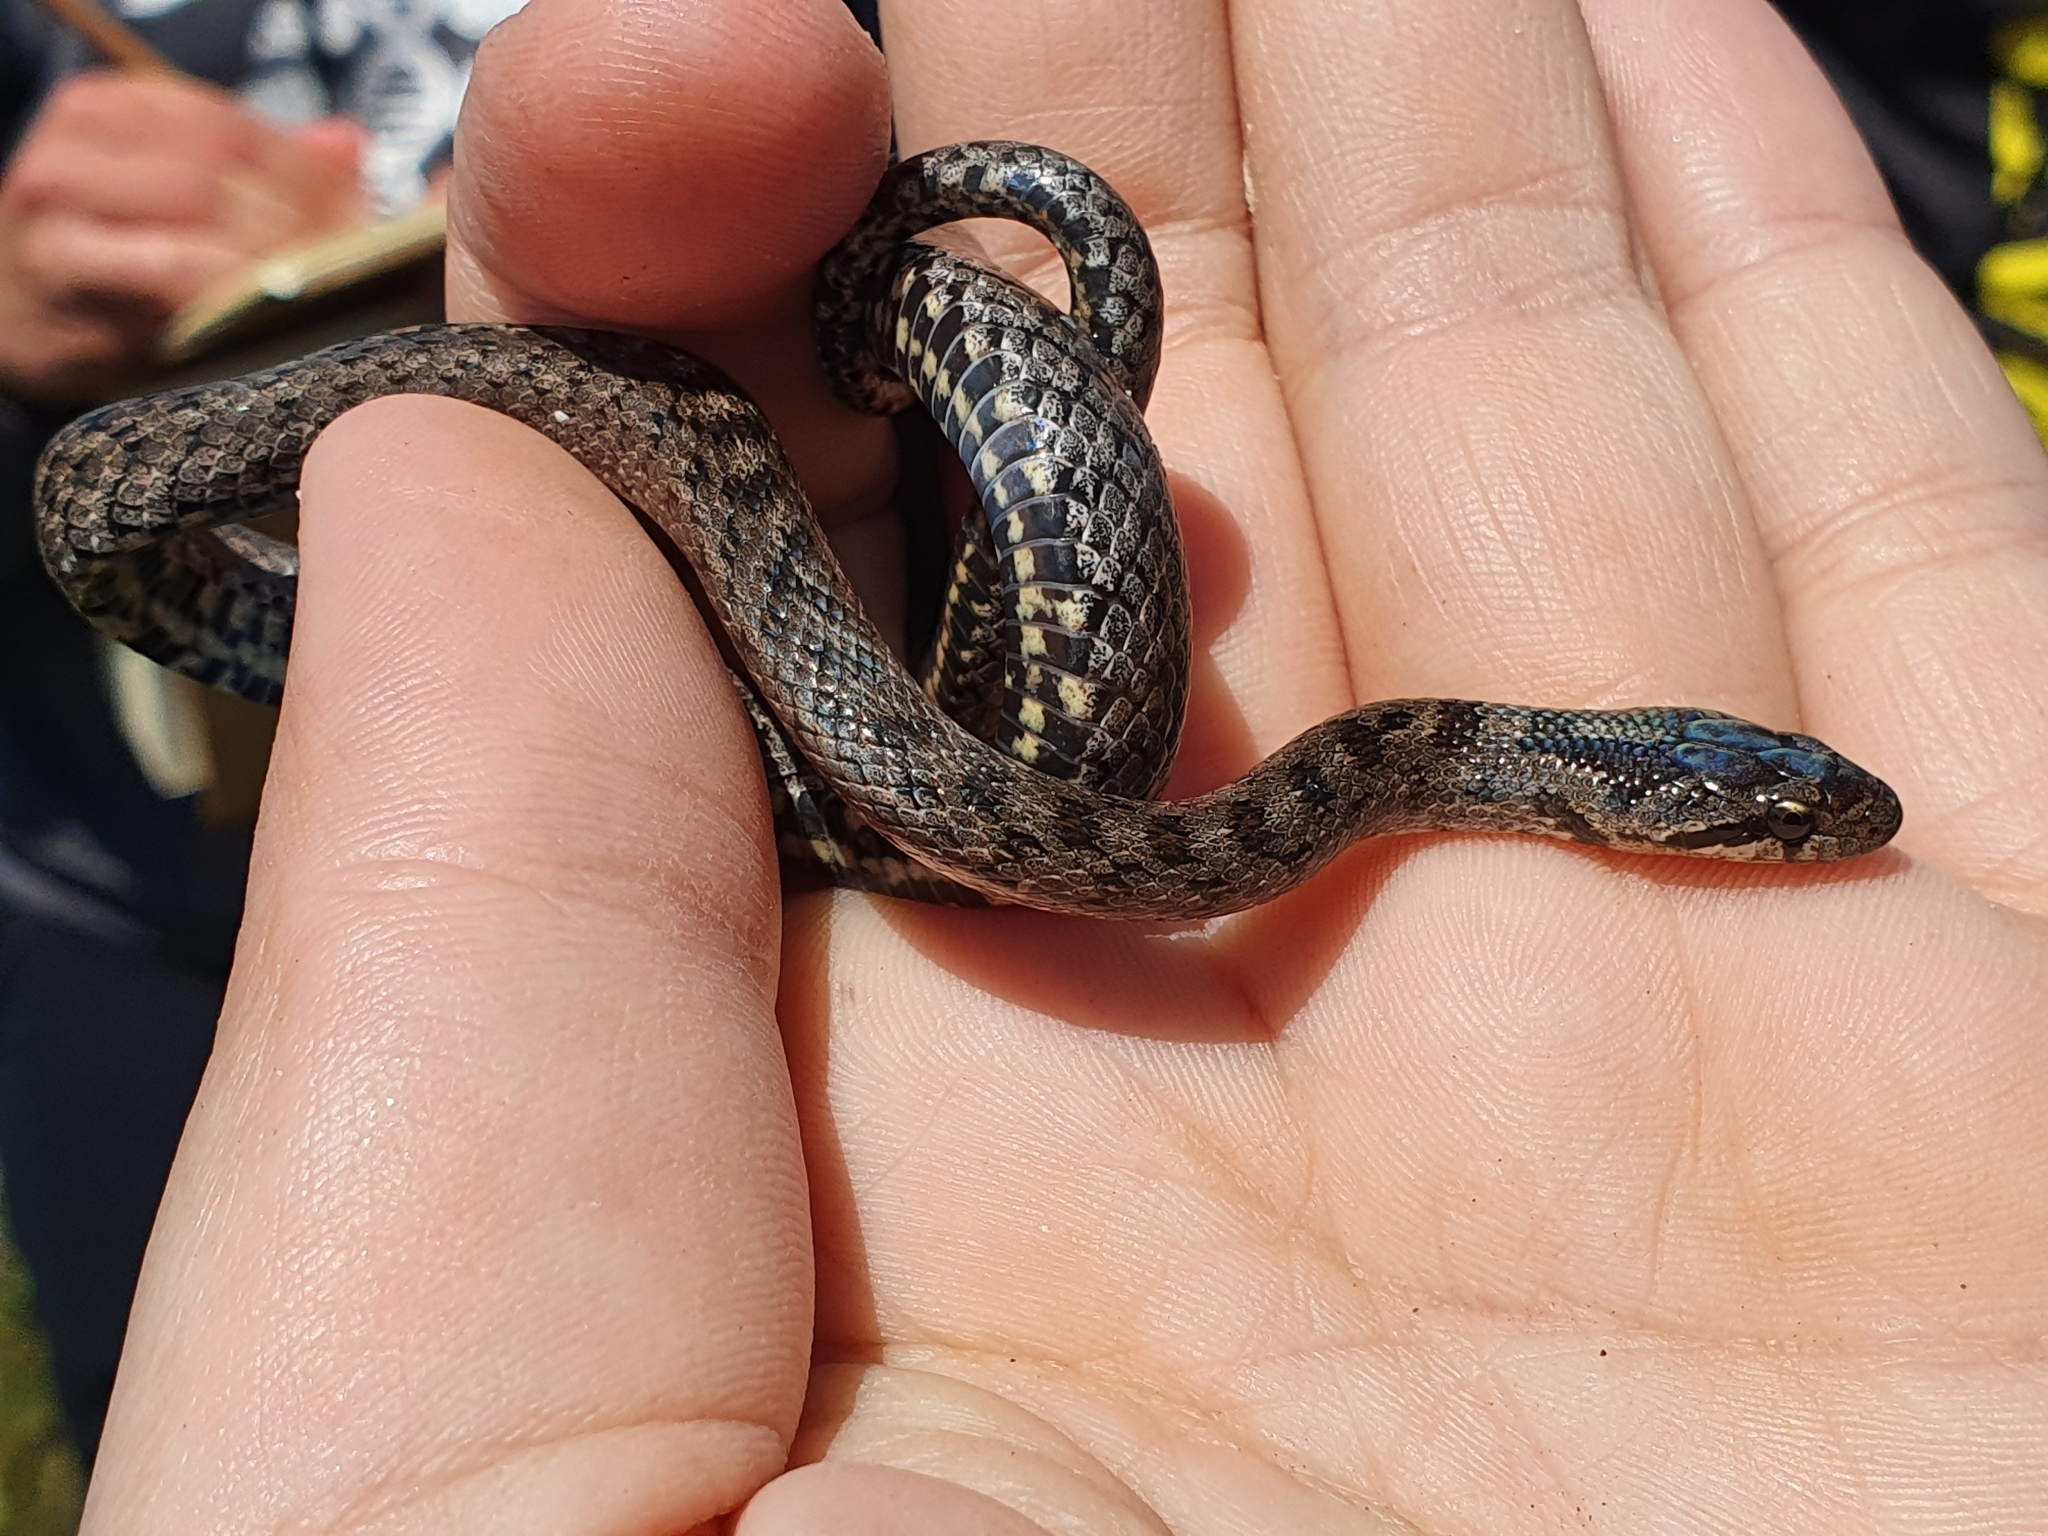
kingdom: Animalia
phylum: Chordata
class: Squamata
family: Colubridae
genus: Coronella
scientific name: Coronella girondica
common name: Southern smooth snake
